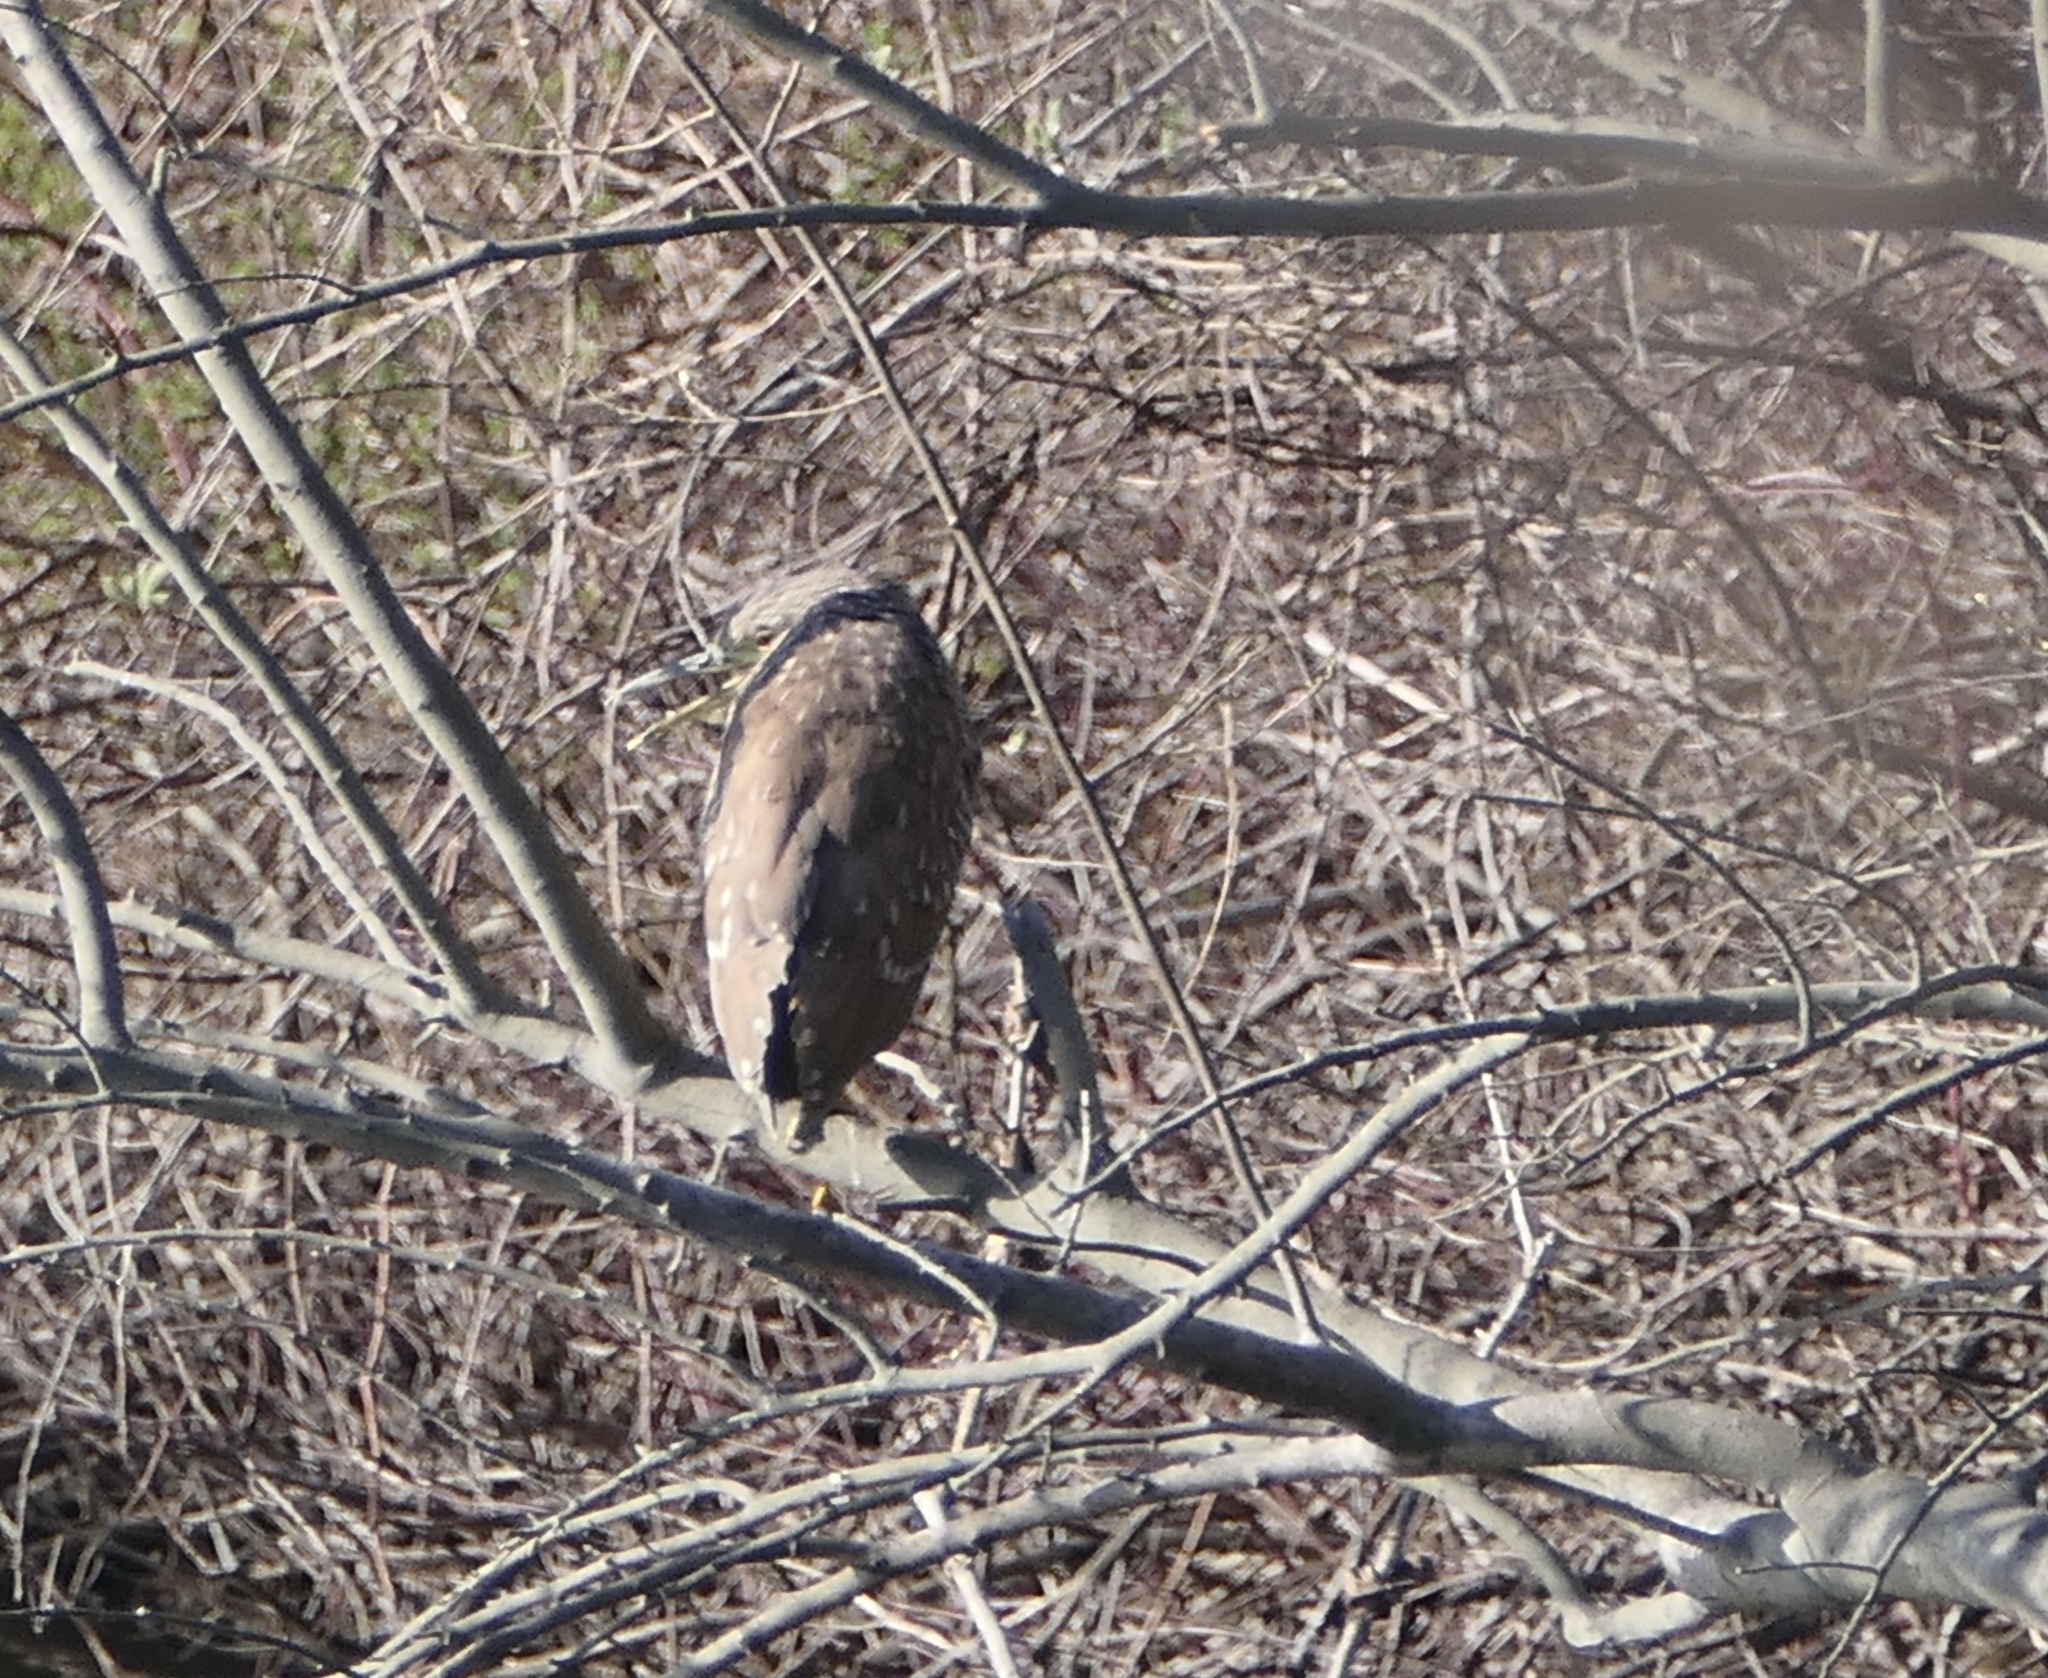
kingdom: Animalia
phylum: Chordata
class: Aves
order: Pelecaniformes
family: Ardeidae
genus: Nycticorax
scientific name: Nycticorax nycticorax
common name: Black-crowned night heron
